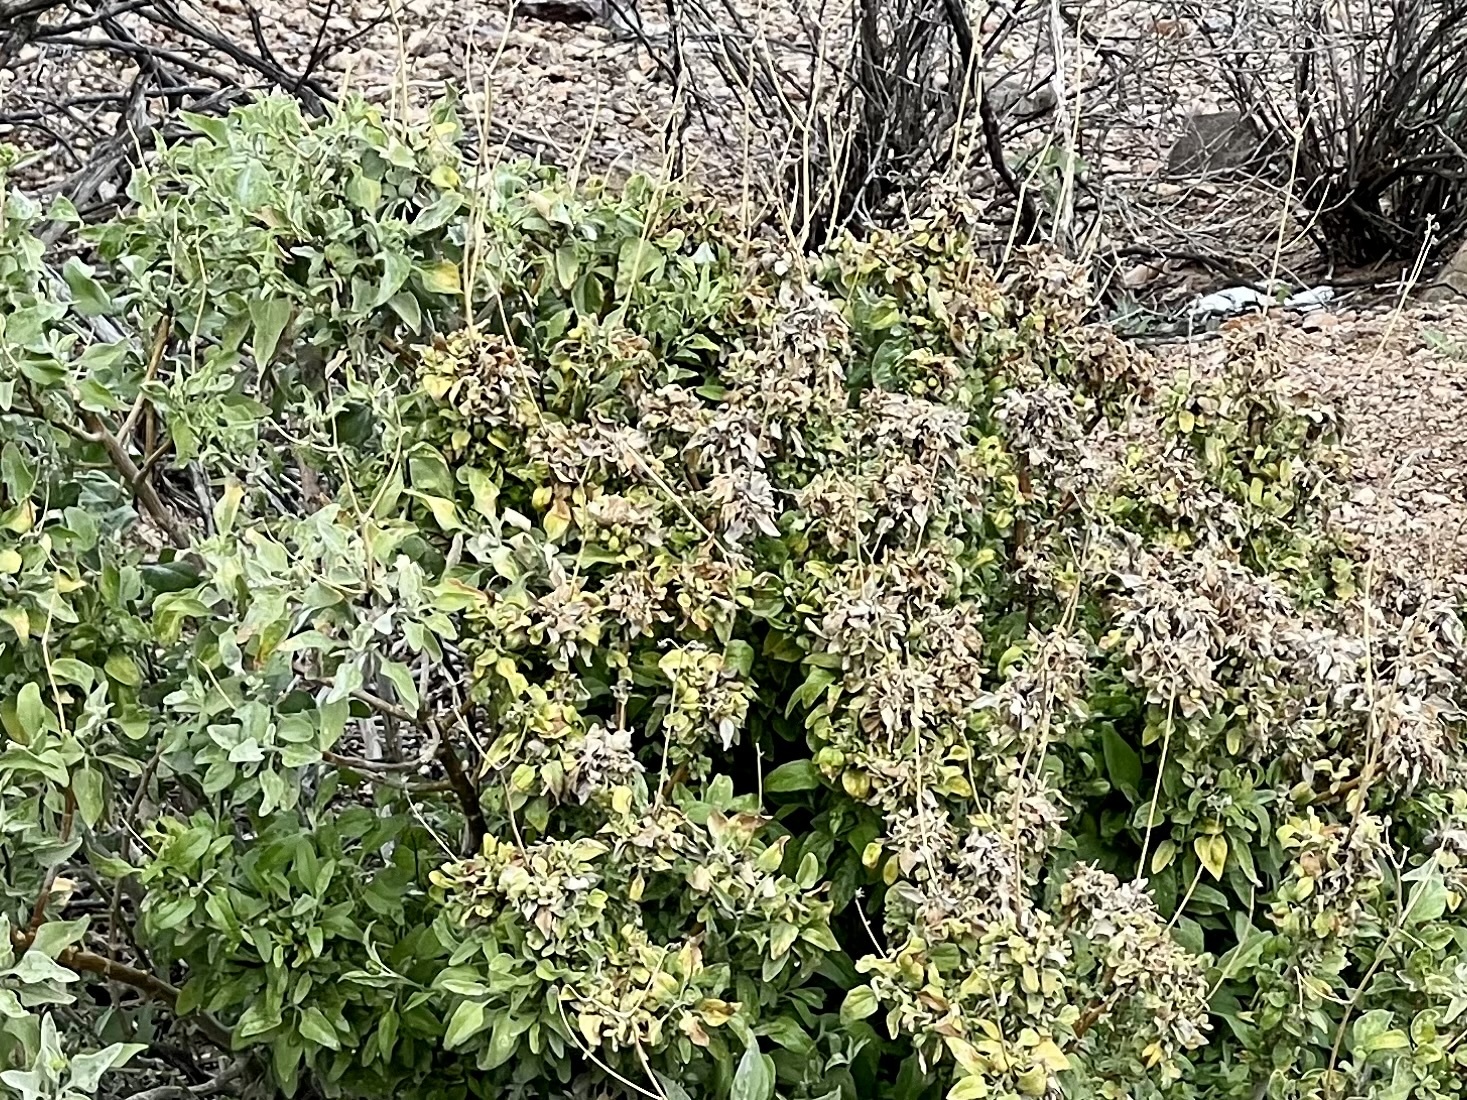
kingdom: Plantae
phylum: Tracheophyta
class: Magnoliopsida
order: Asterales
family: Asteraceae
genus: Ambrosia
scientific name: Ambrosia deltoidea
